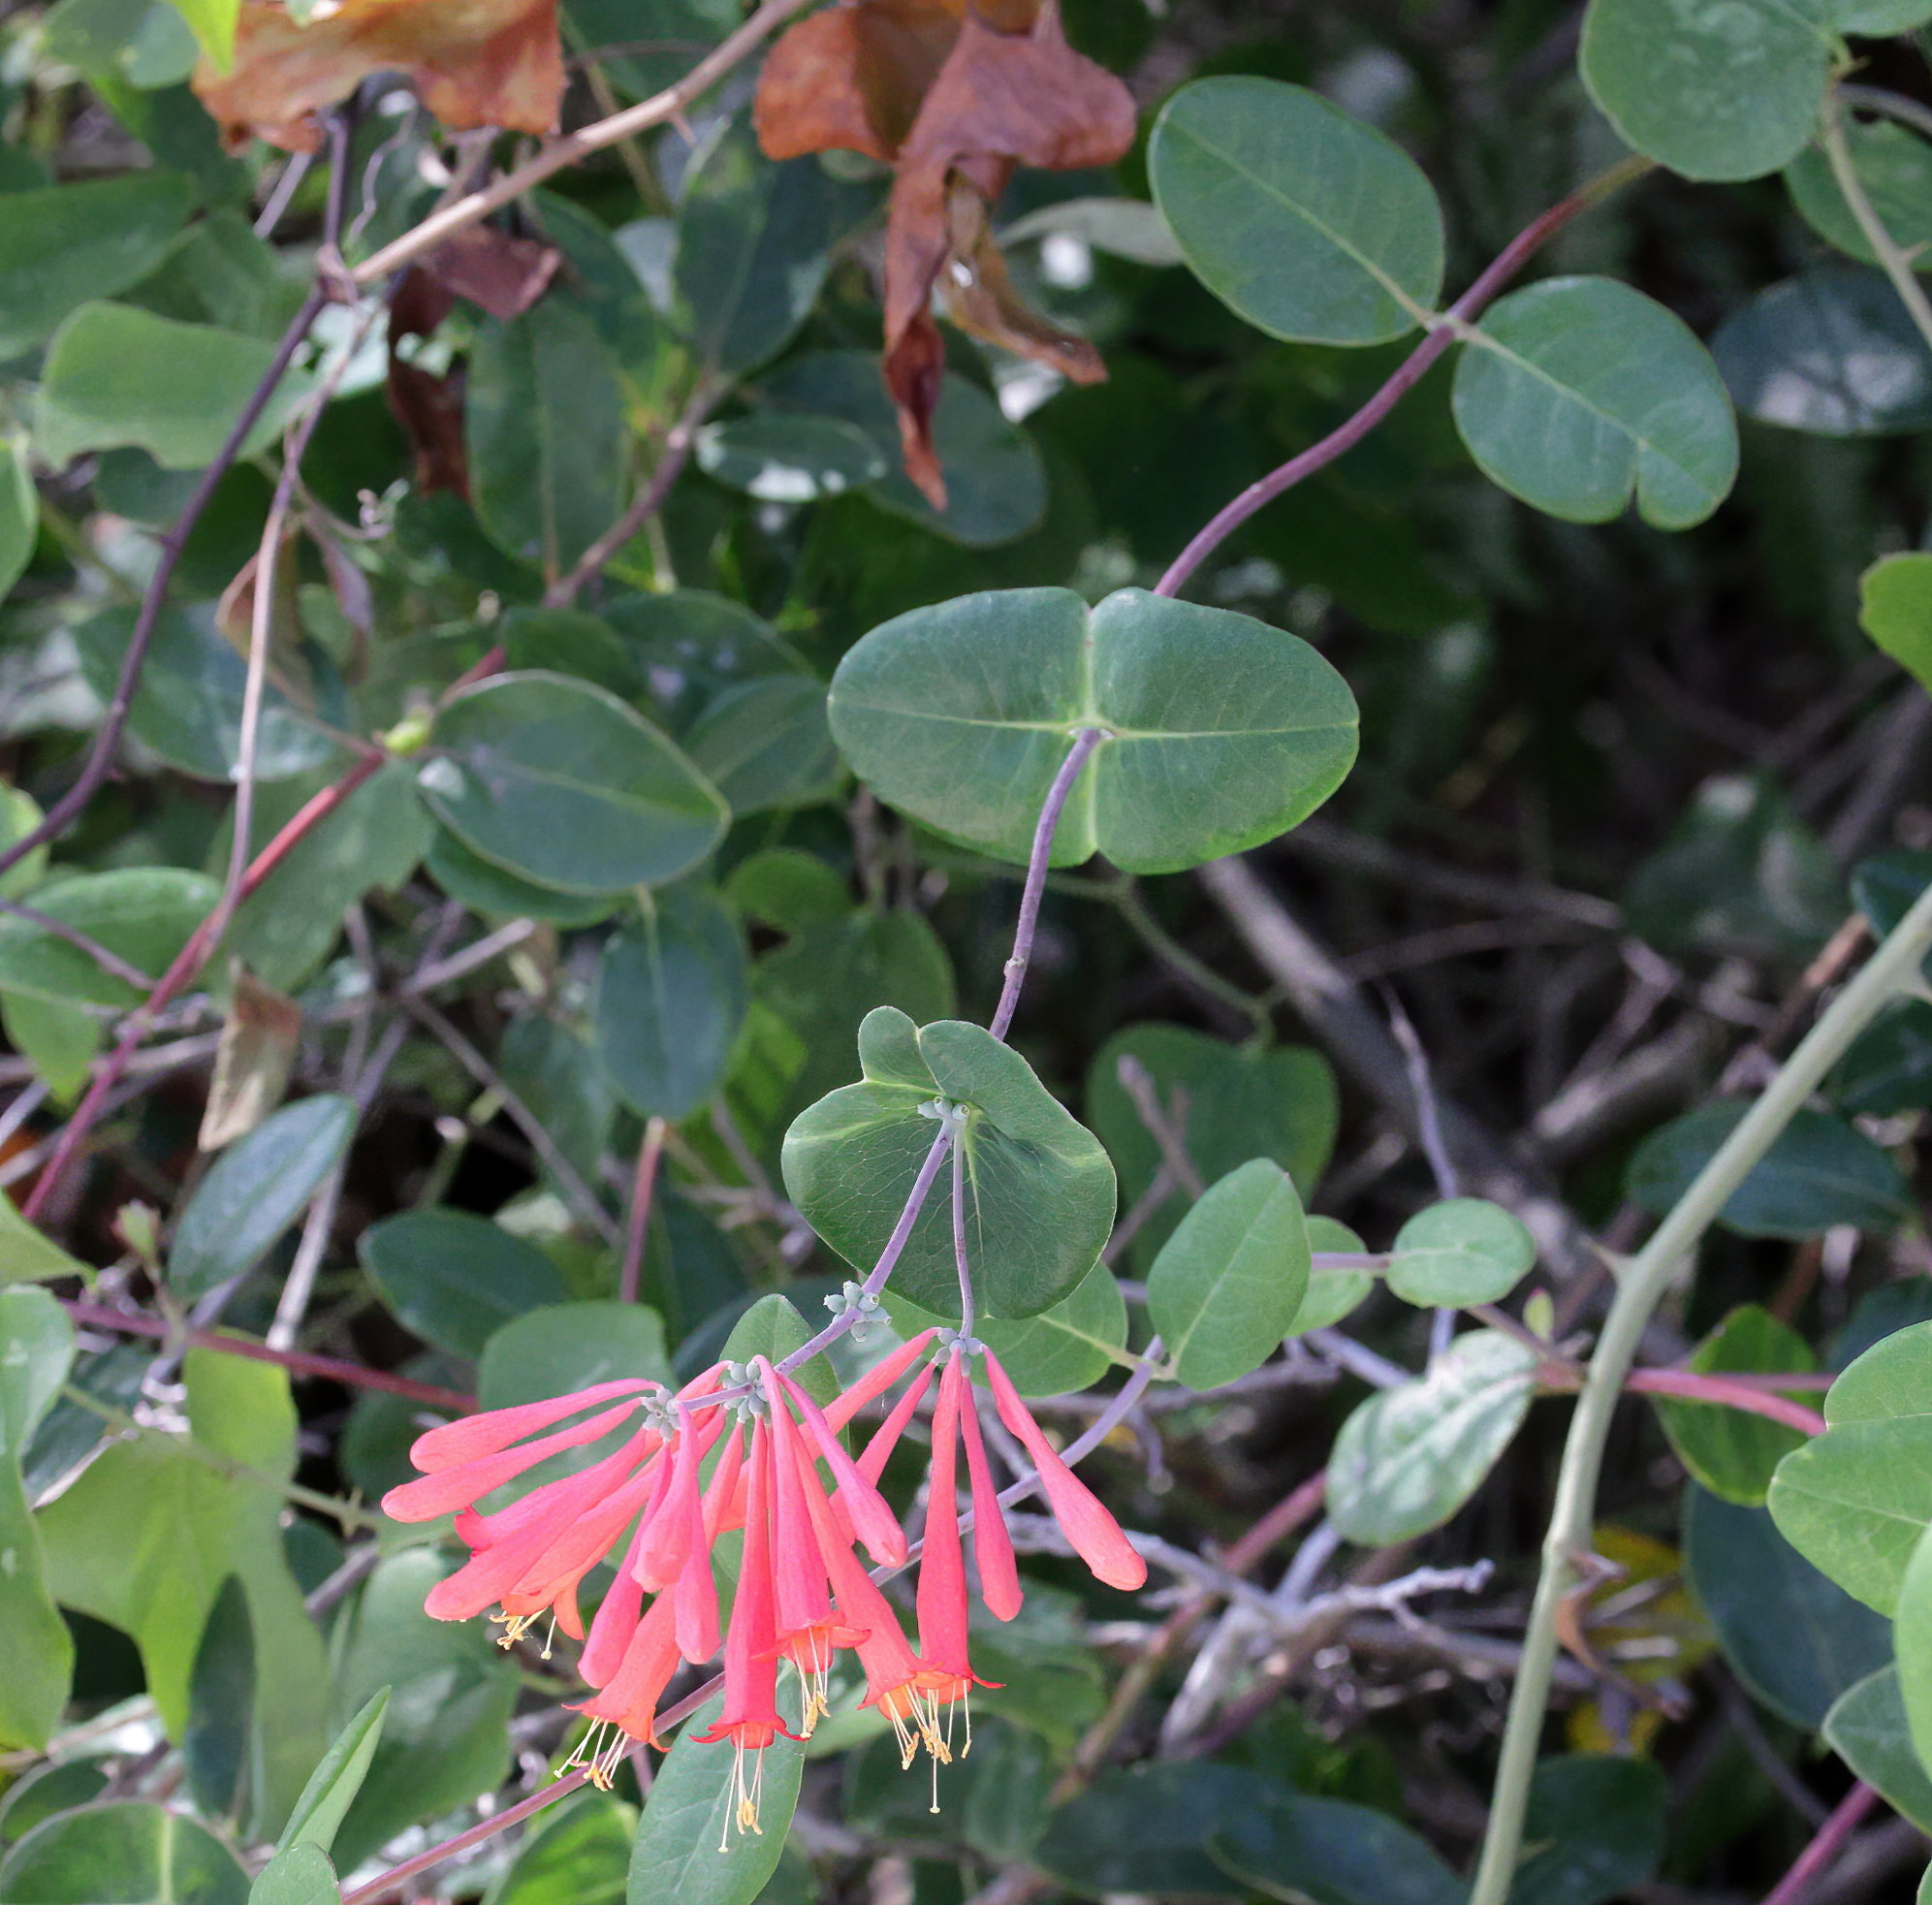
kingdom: Plantae
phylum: Tracheophyta
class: Magnoliopsida
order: Dipsacales
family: Caprifoliaceae
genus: Lonicera
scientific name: Lonicera sempervirens
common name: Coral honeysuckle
